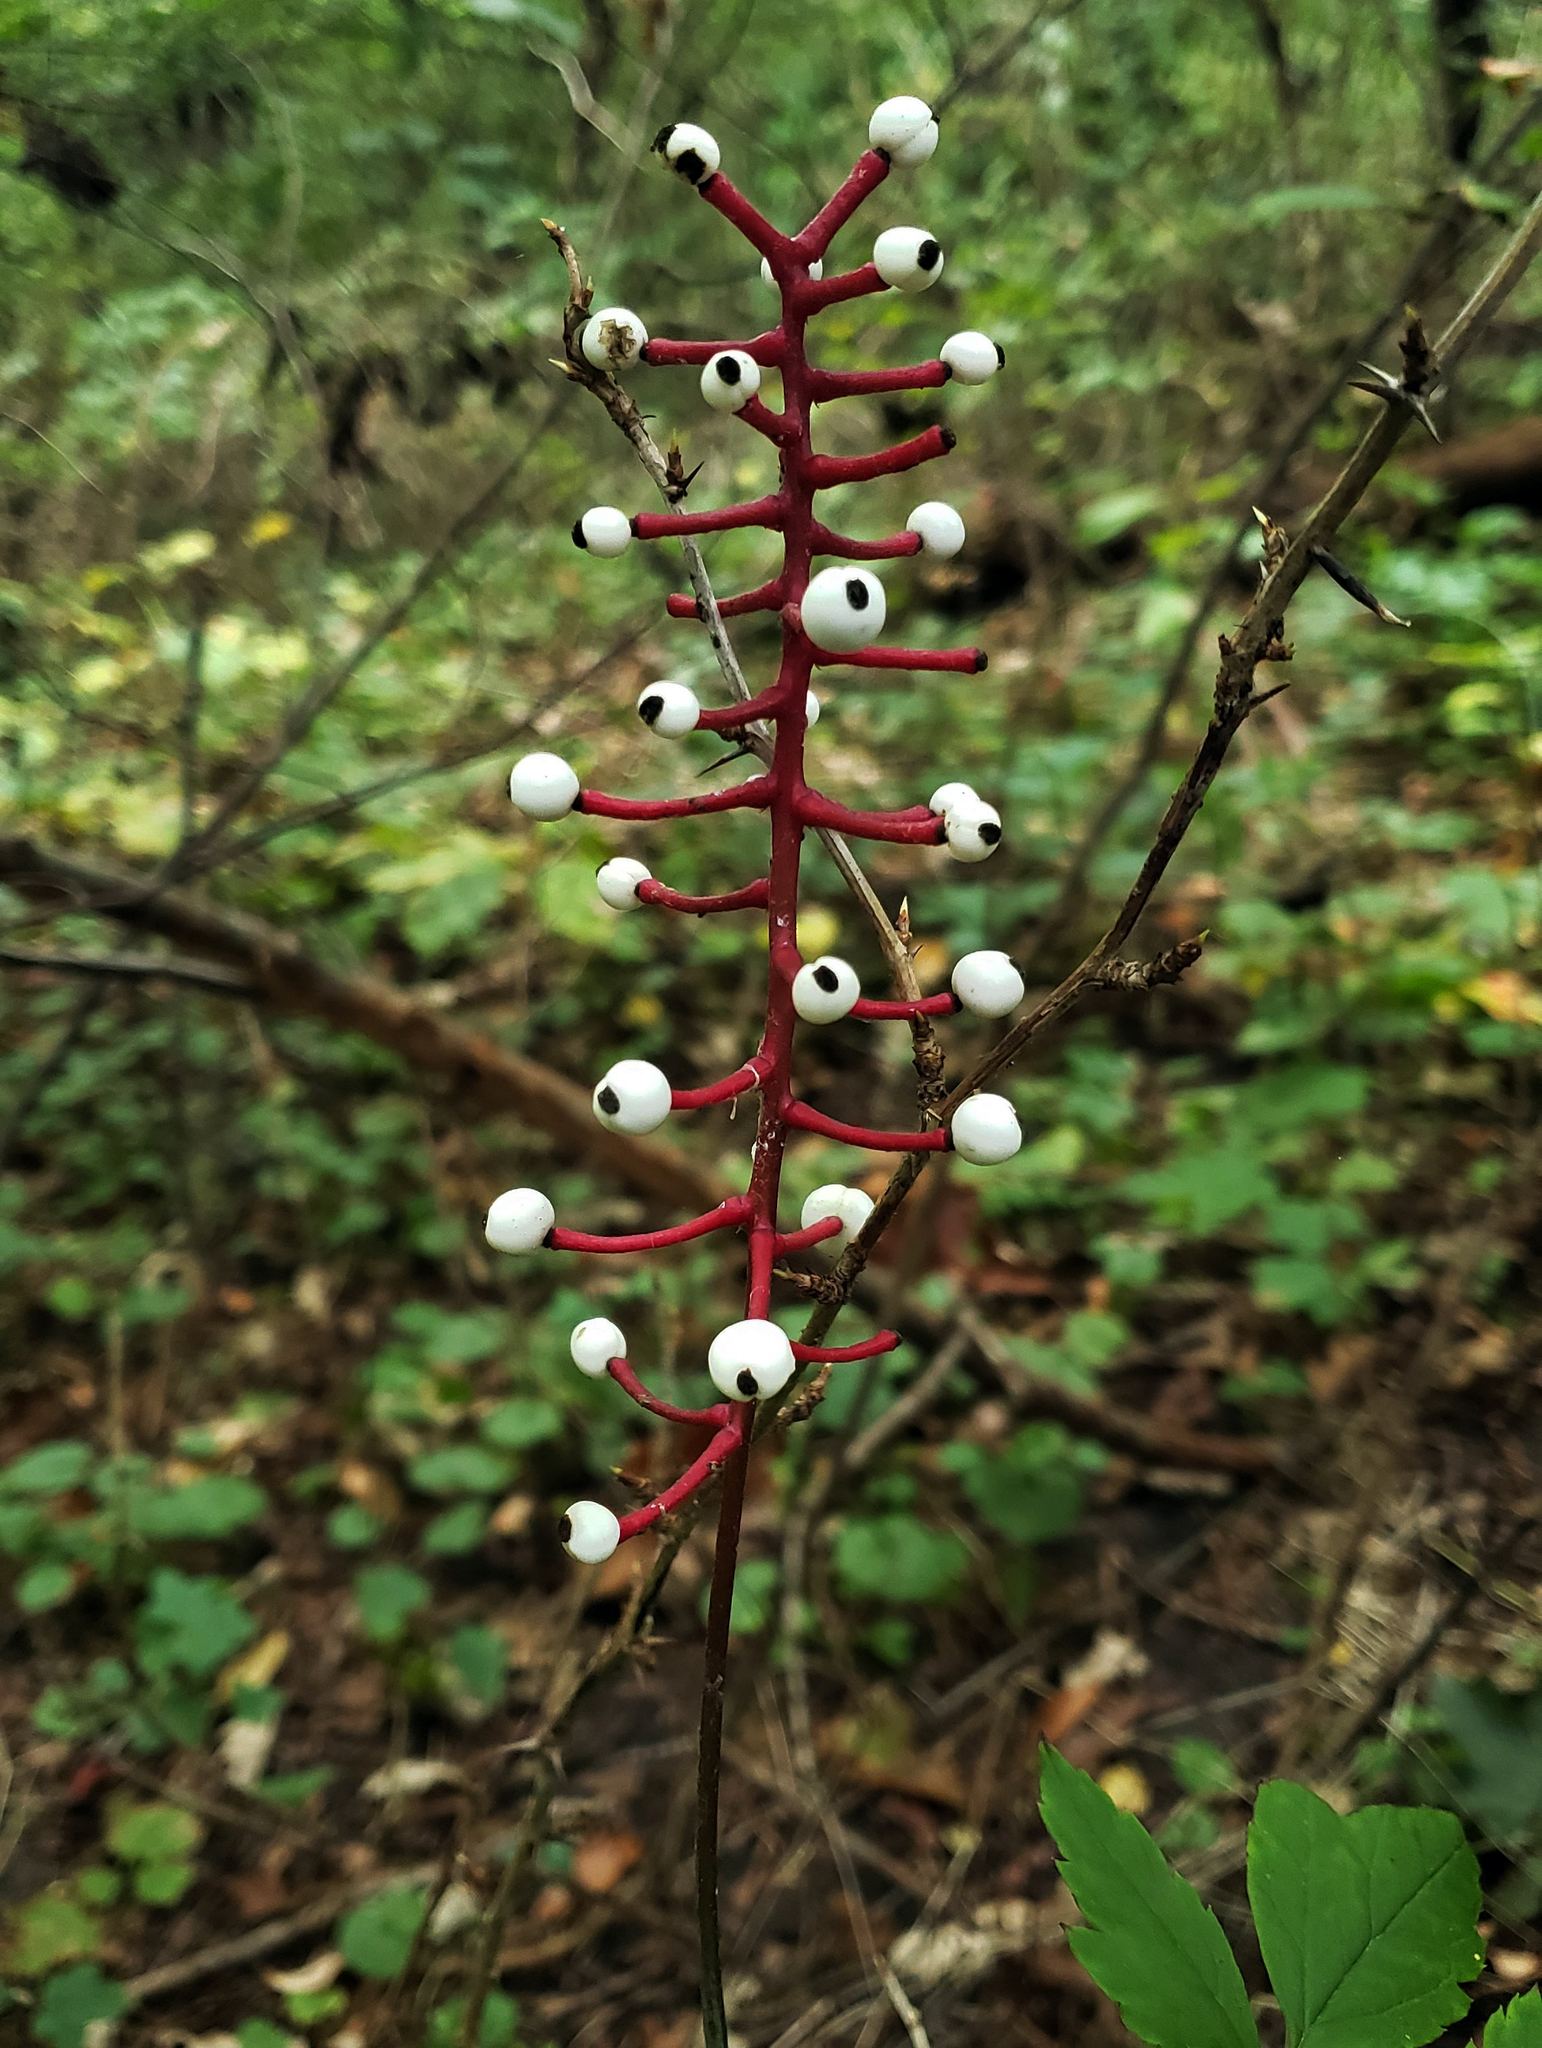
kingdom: Plantae
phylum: Tracheophyta
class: Magnoliopsida
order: Ranunculales
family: Ranunculaceae
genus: Actaea
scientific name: Actaea pachypoda
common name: Doll's-eyes
